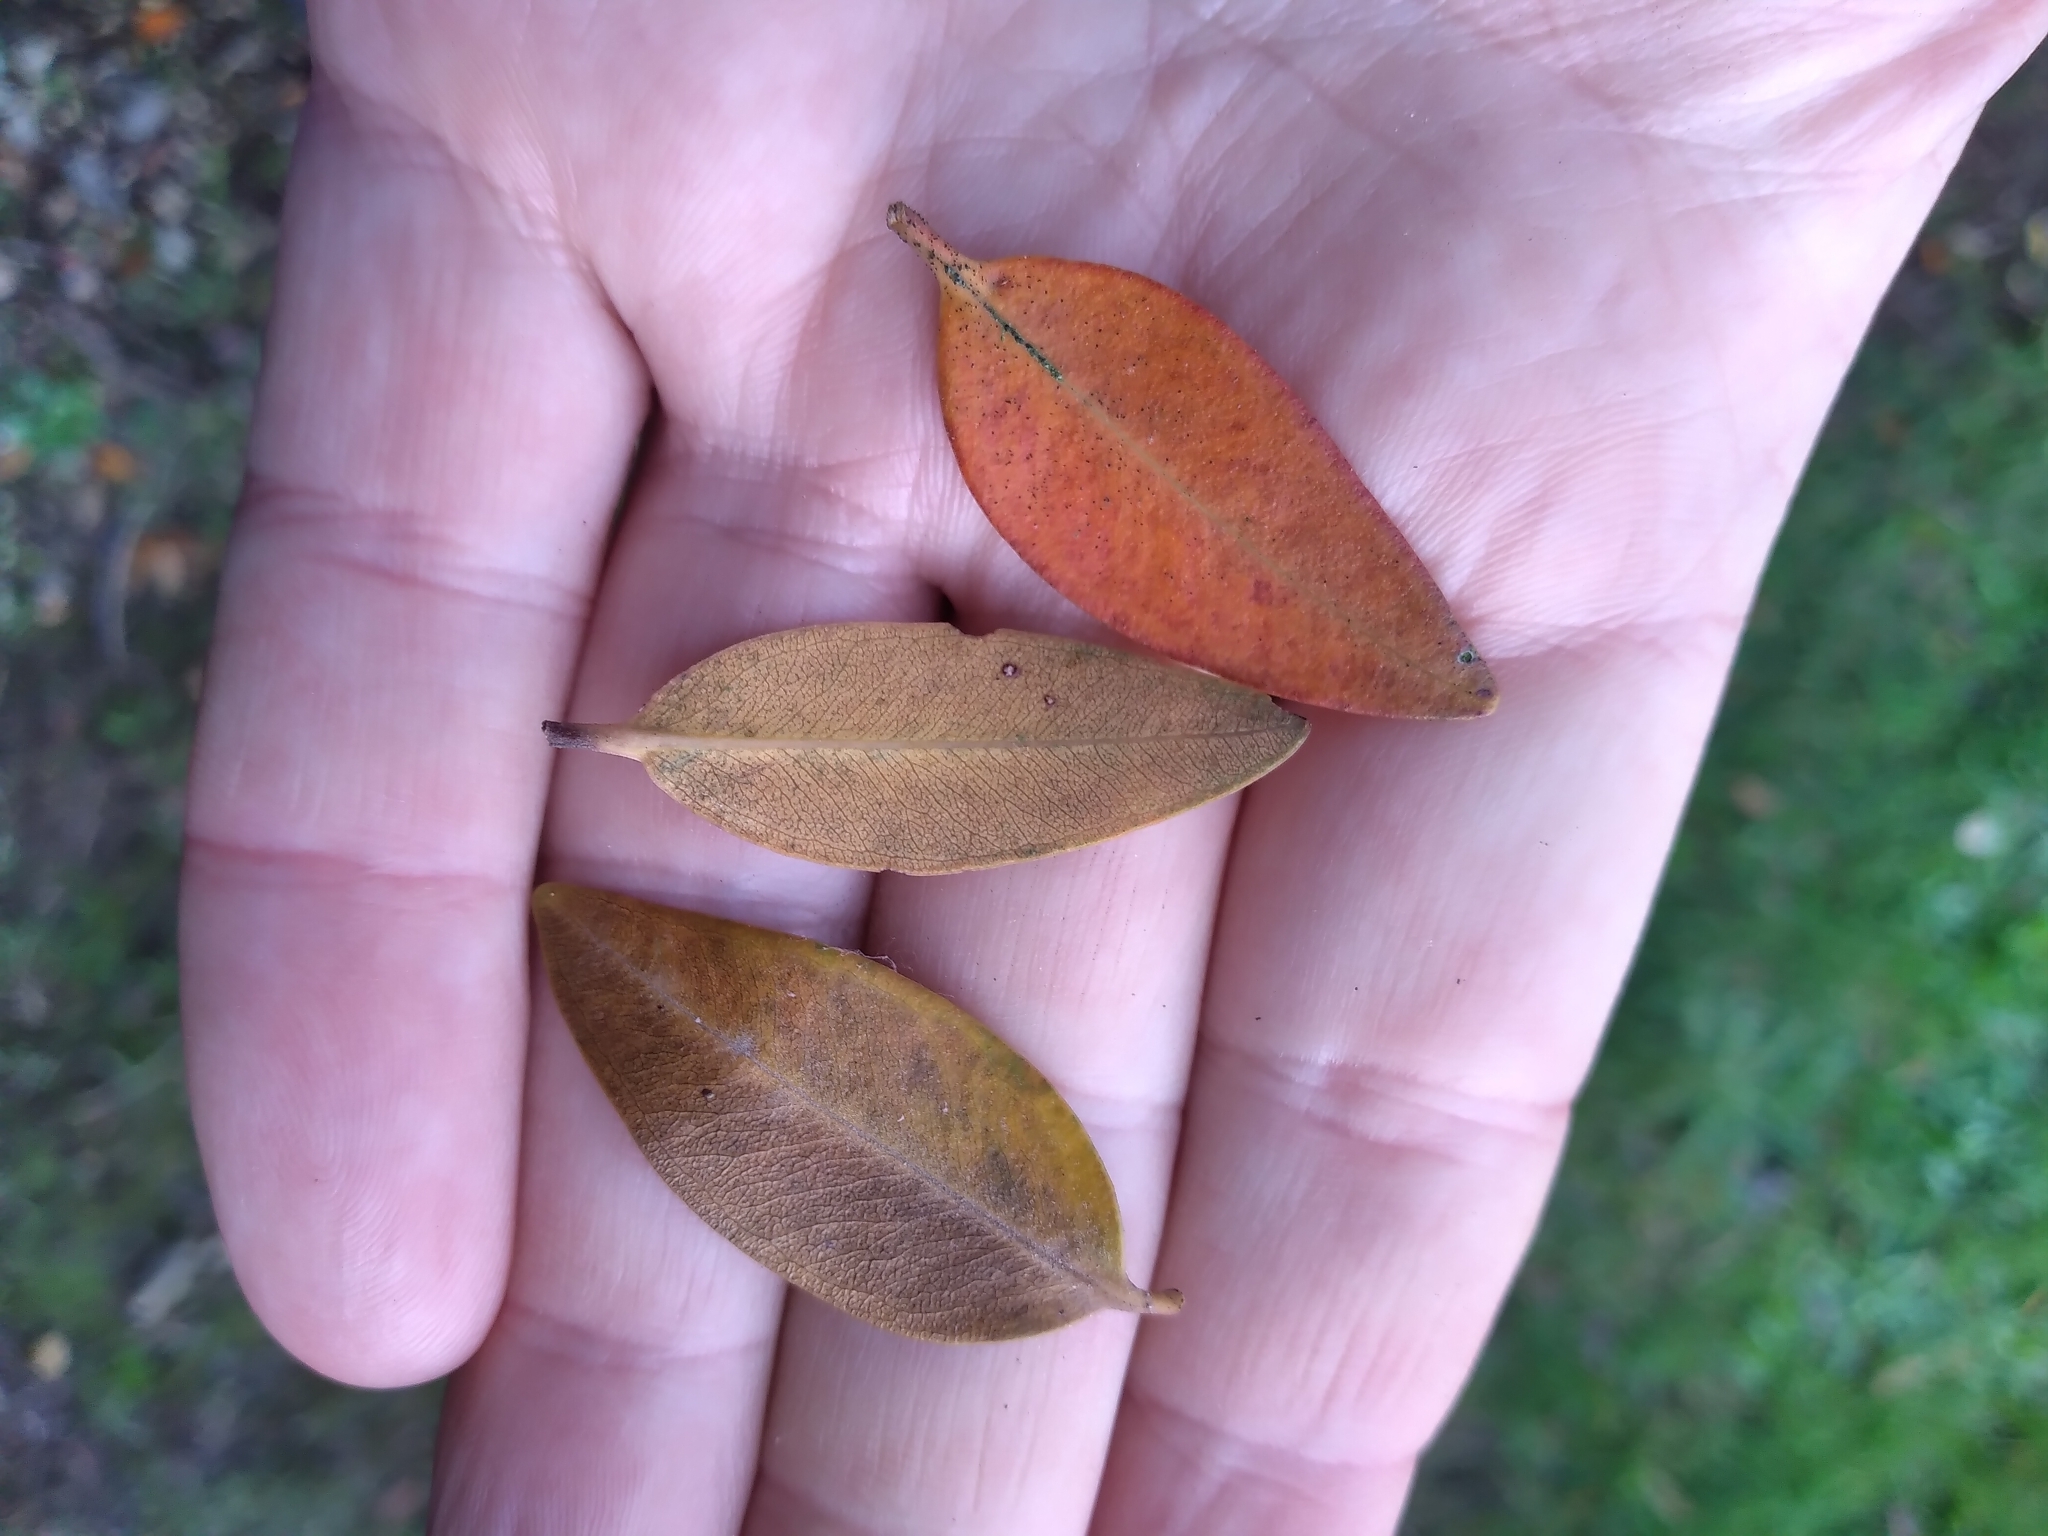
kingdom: Plantae
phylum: Tracheophyta
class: Magnoliopsida
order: Myrtales
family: Myrtaceae
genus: Metrosideros
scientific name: Metrosideros robusta
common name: Northern rata
